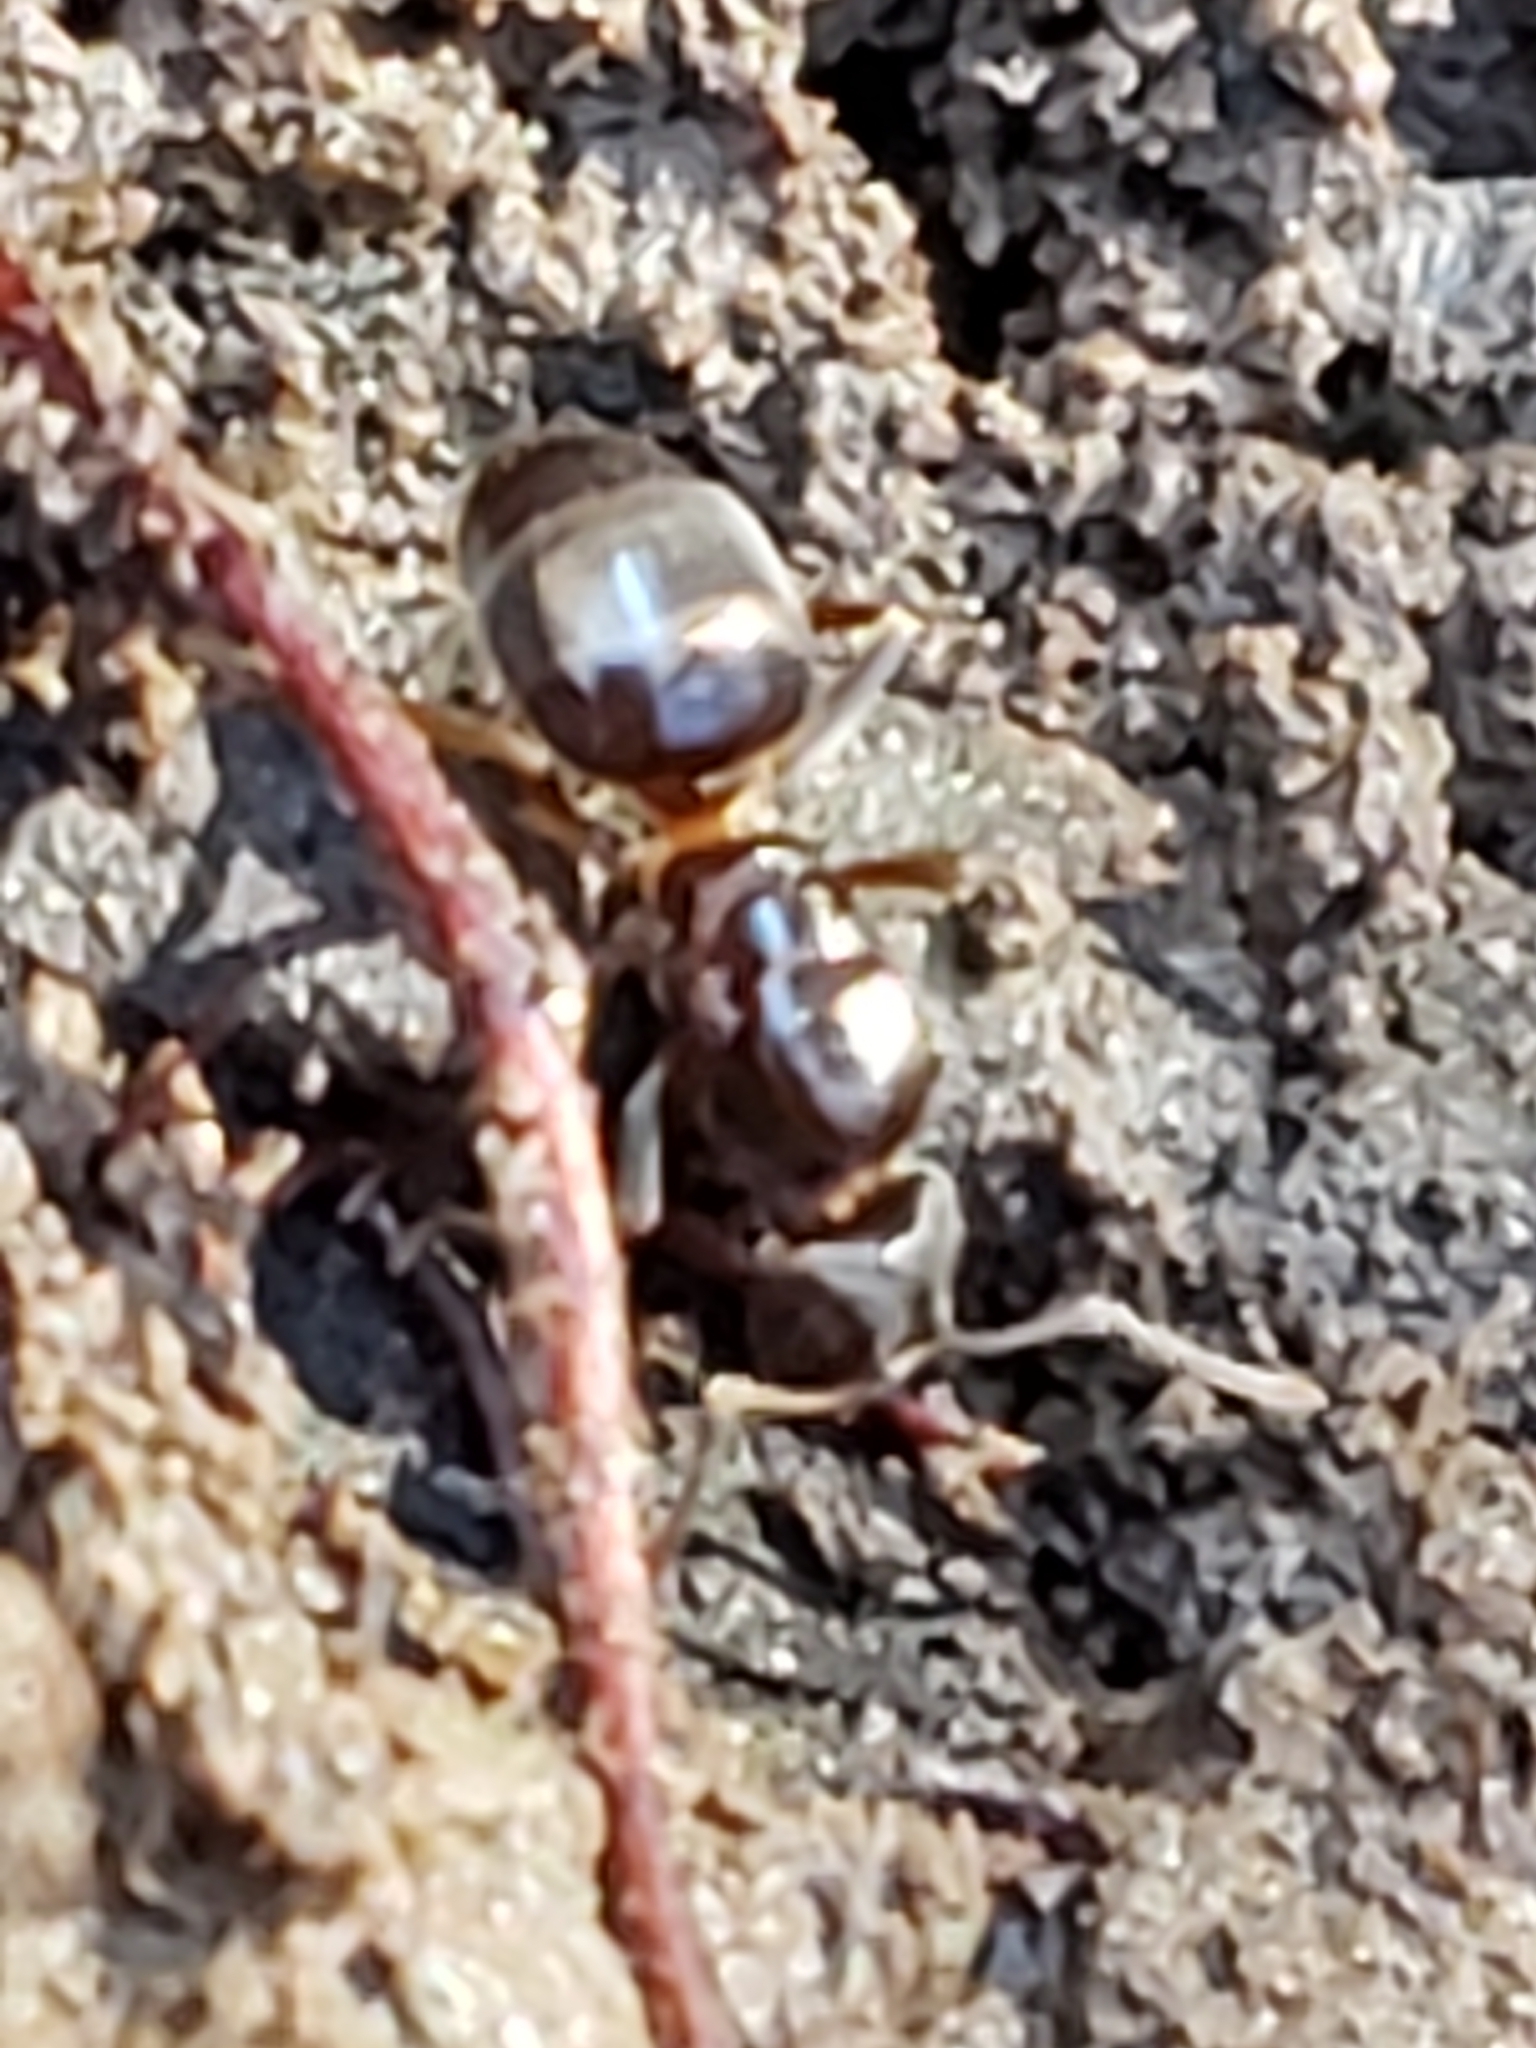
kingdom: Animalia
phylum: Arthropoda
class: Insecta
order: Hymenoptera
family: Formicidae
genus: Lasius
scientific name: Lasius aphidicola
